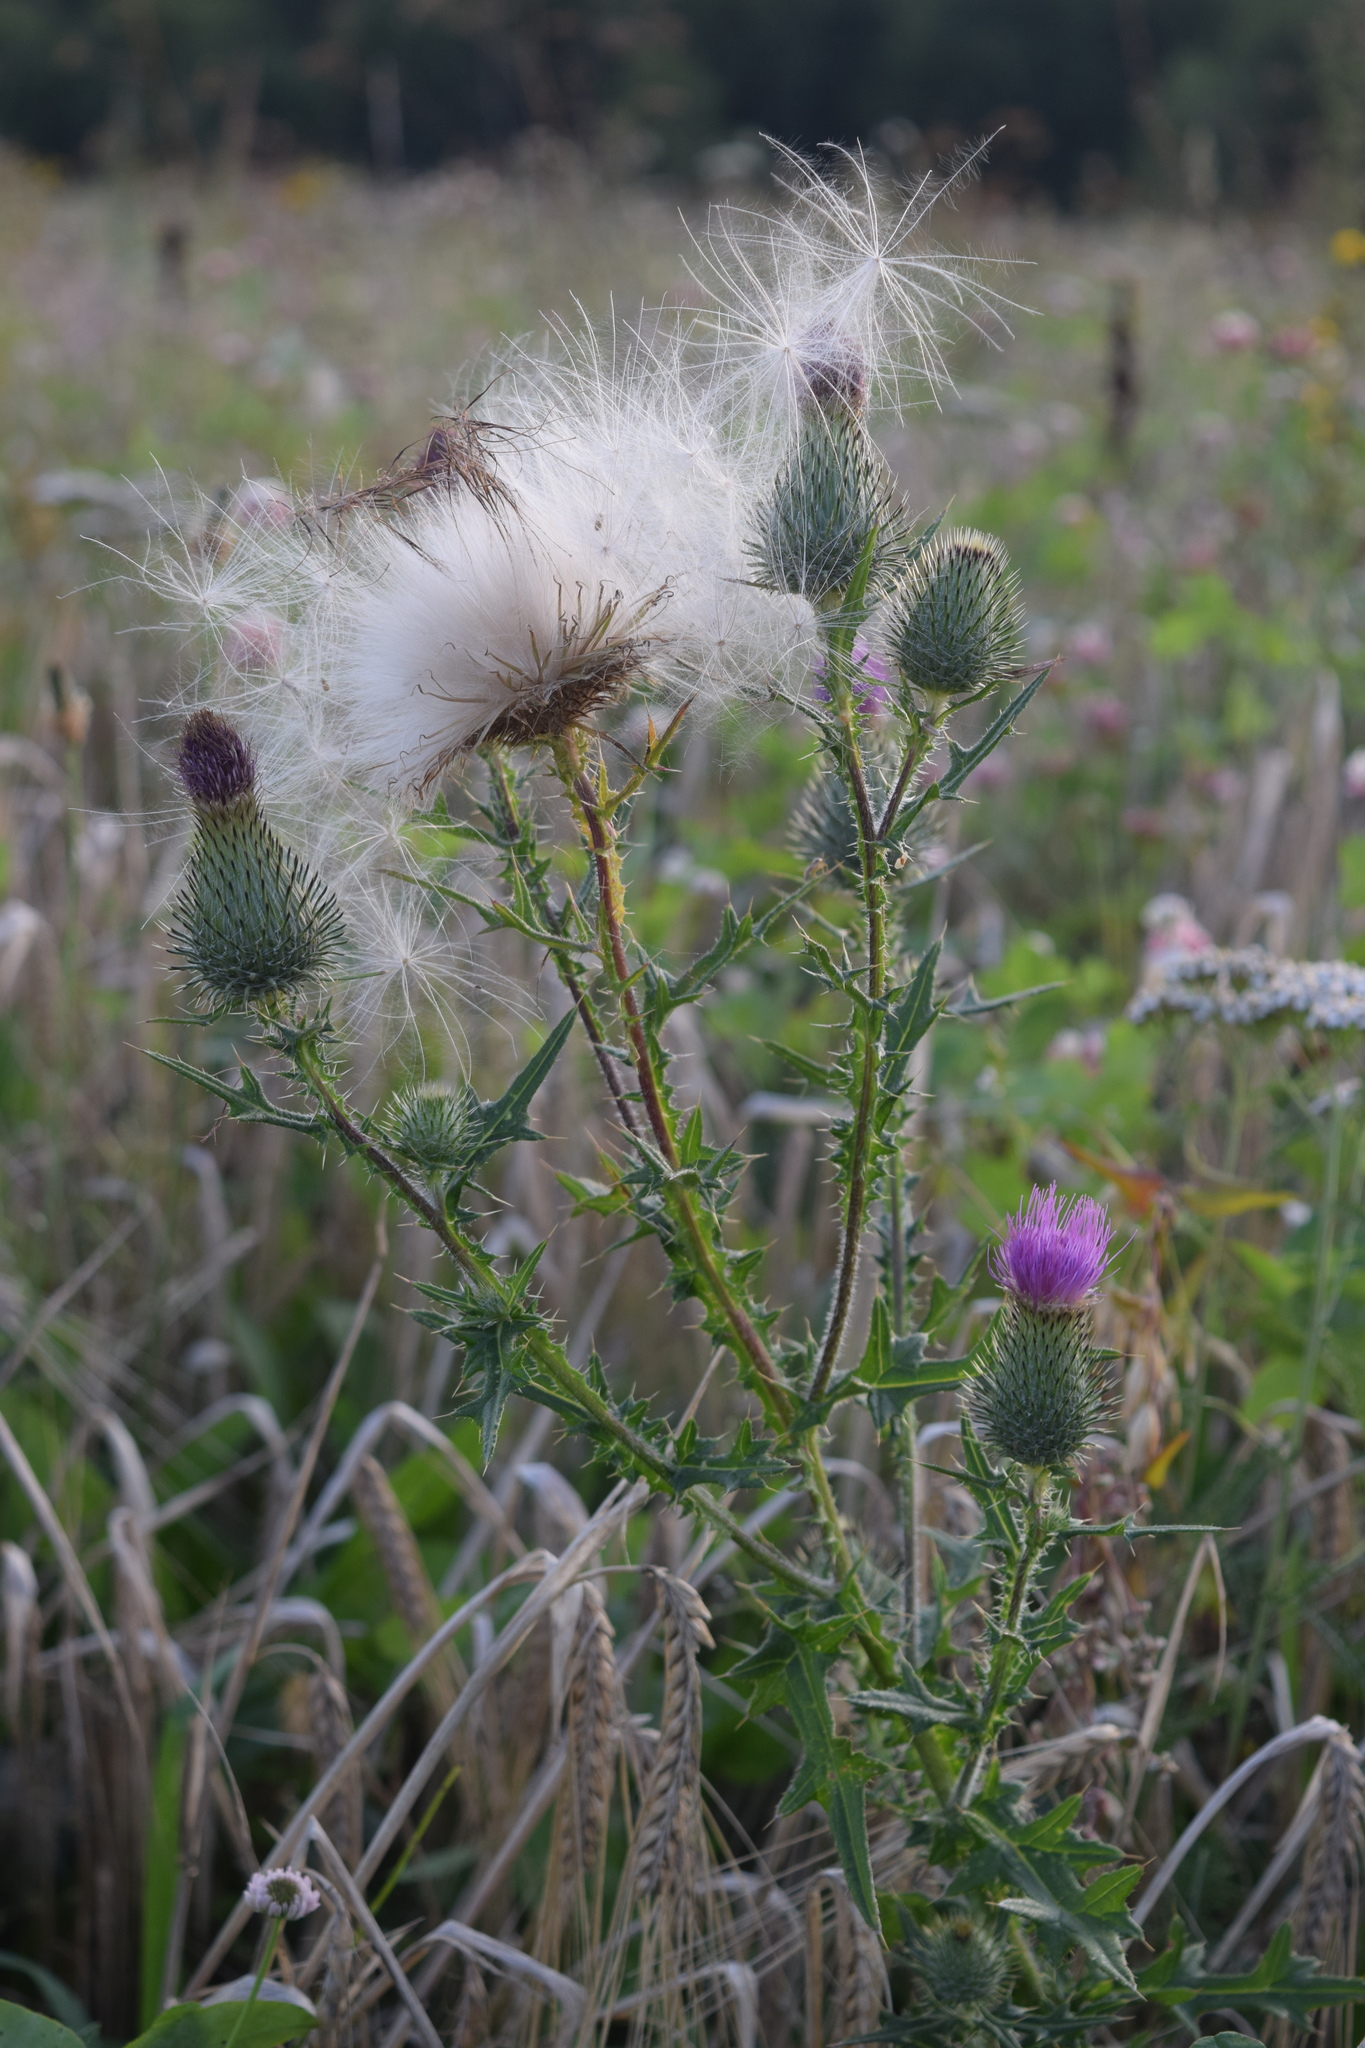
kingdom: Plantae
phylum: Tracheophyta
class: Magnoliopsida
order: Asterales
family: Asteraceae
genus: Cirsium
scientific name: Cirsium vulgare
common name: Bull thistle
